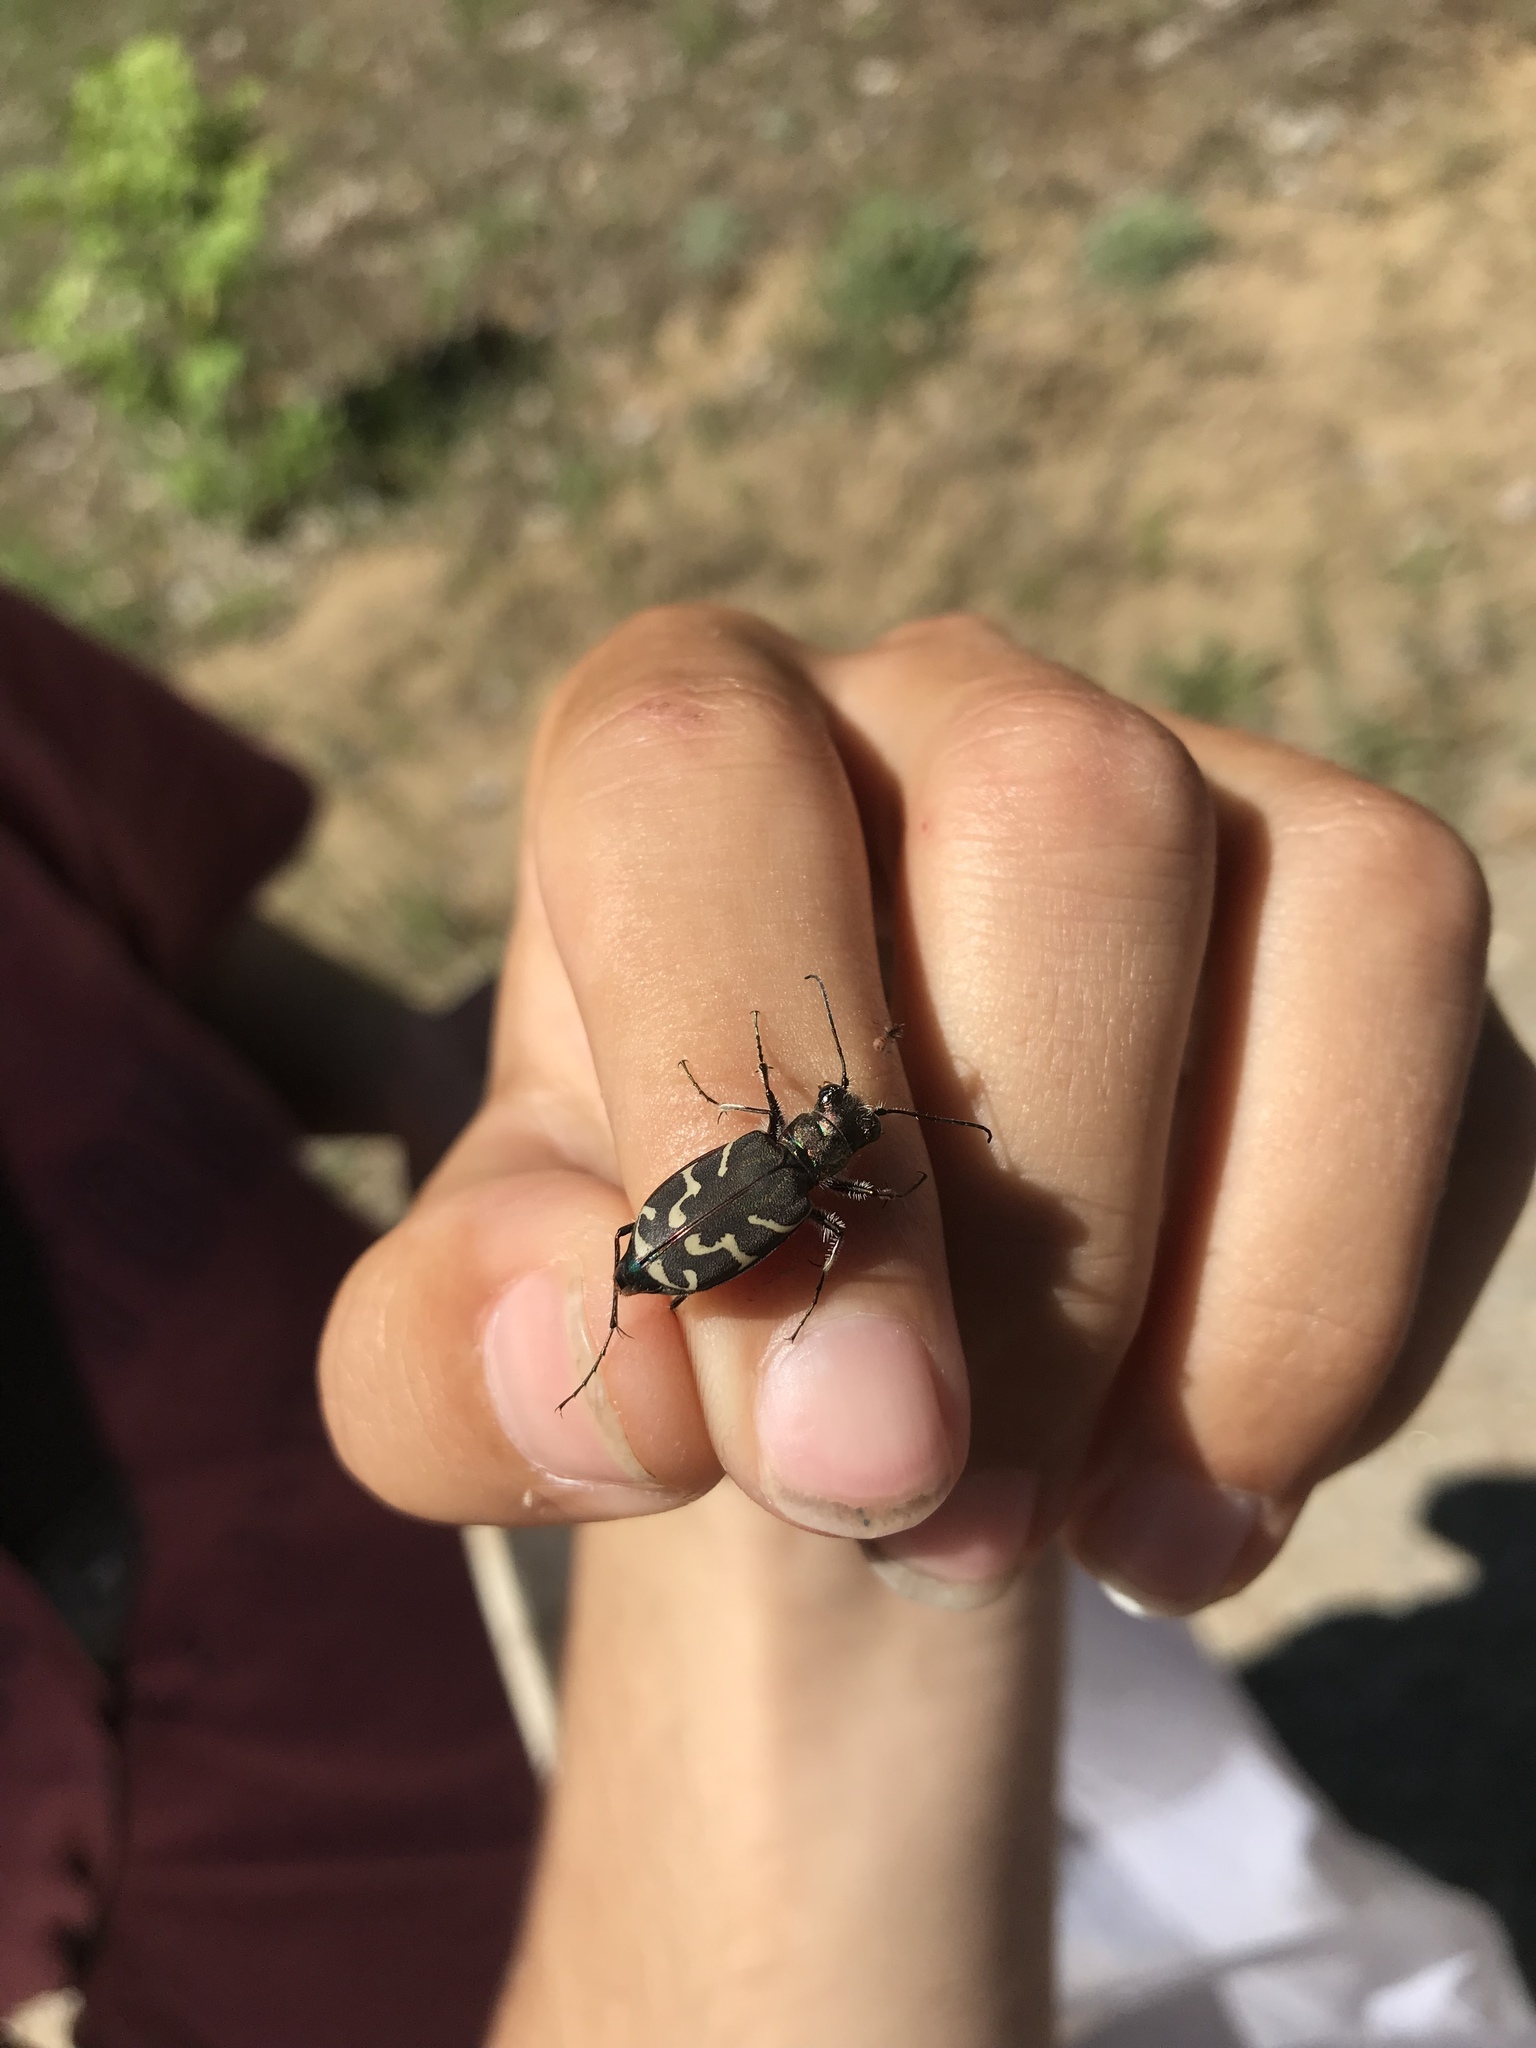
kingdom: Animalia
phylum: Arthropoda
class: Insecta
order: Coleoptera
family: Carabidae
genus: Cicindela
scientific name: Cicindela tranquebarica
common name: Oblique-lined tiger beetle
